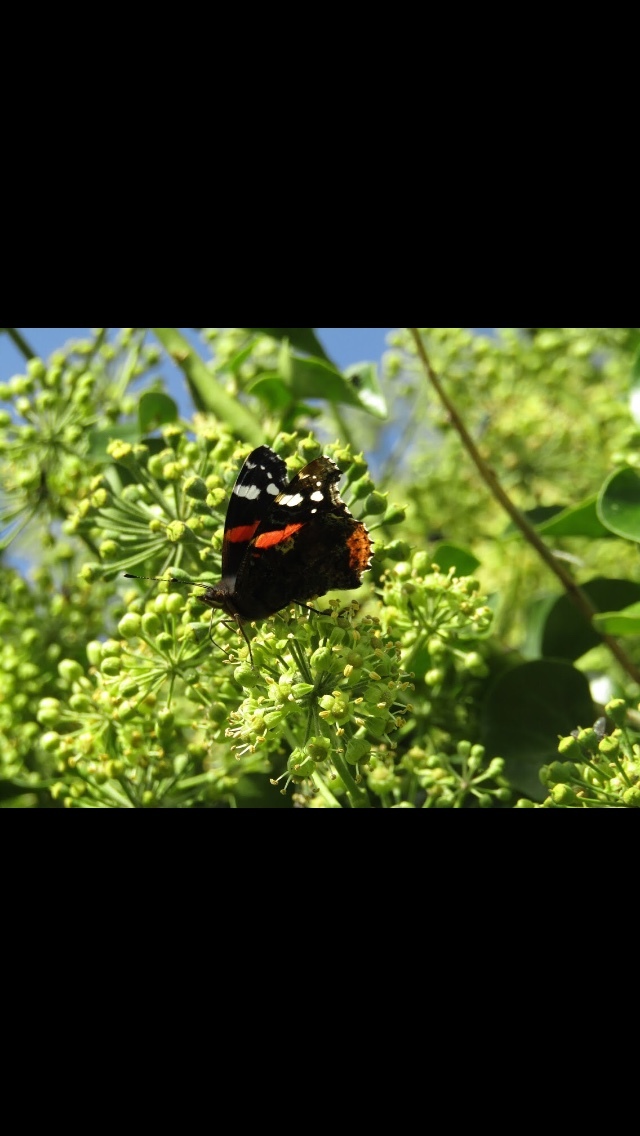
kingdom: Animalia
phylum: Arthropoda
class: Insecta
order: Lepidoptera
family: Nymphalidae
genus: Vanessa
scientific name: Vanessa atalanta
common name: Red admiral
